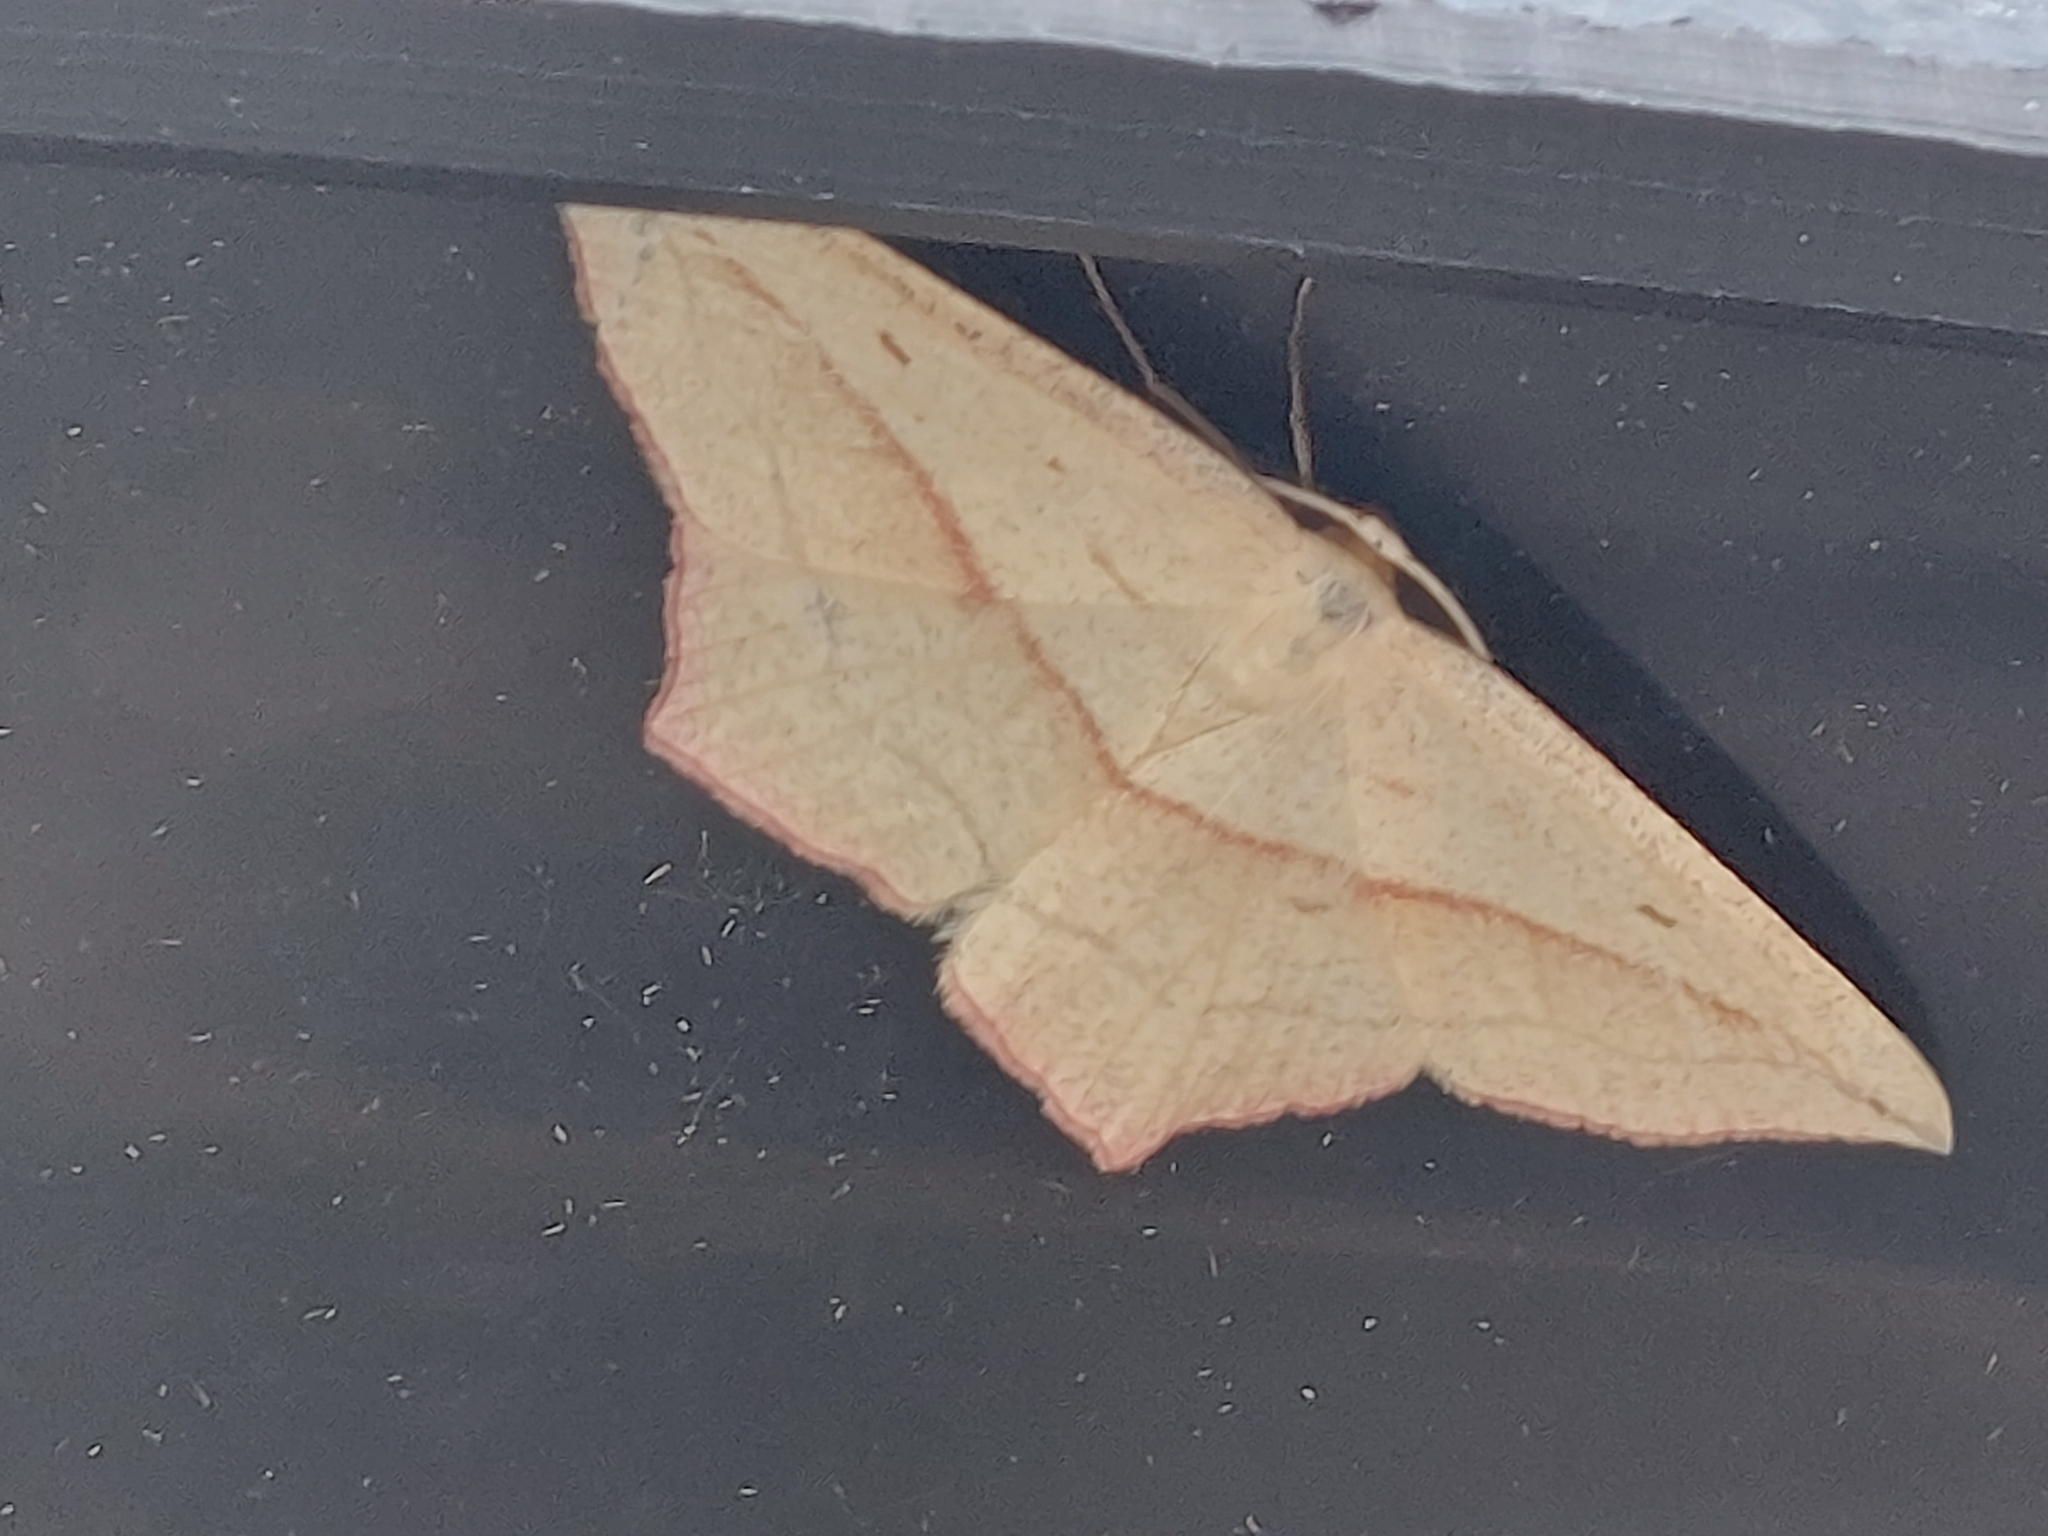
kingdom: Animalia
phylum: Arthropoda
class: Insecta
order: Lepidoptera
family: Geometridae
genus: Timandra
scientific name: Timandra comae
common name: Blood-vein
